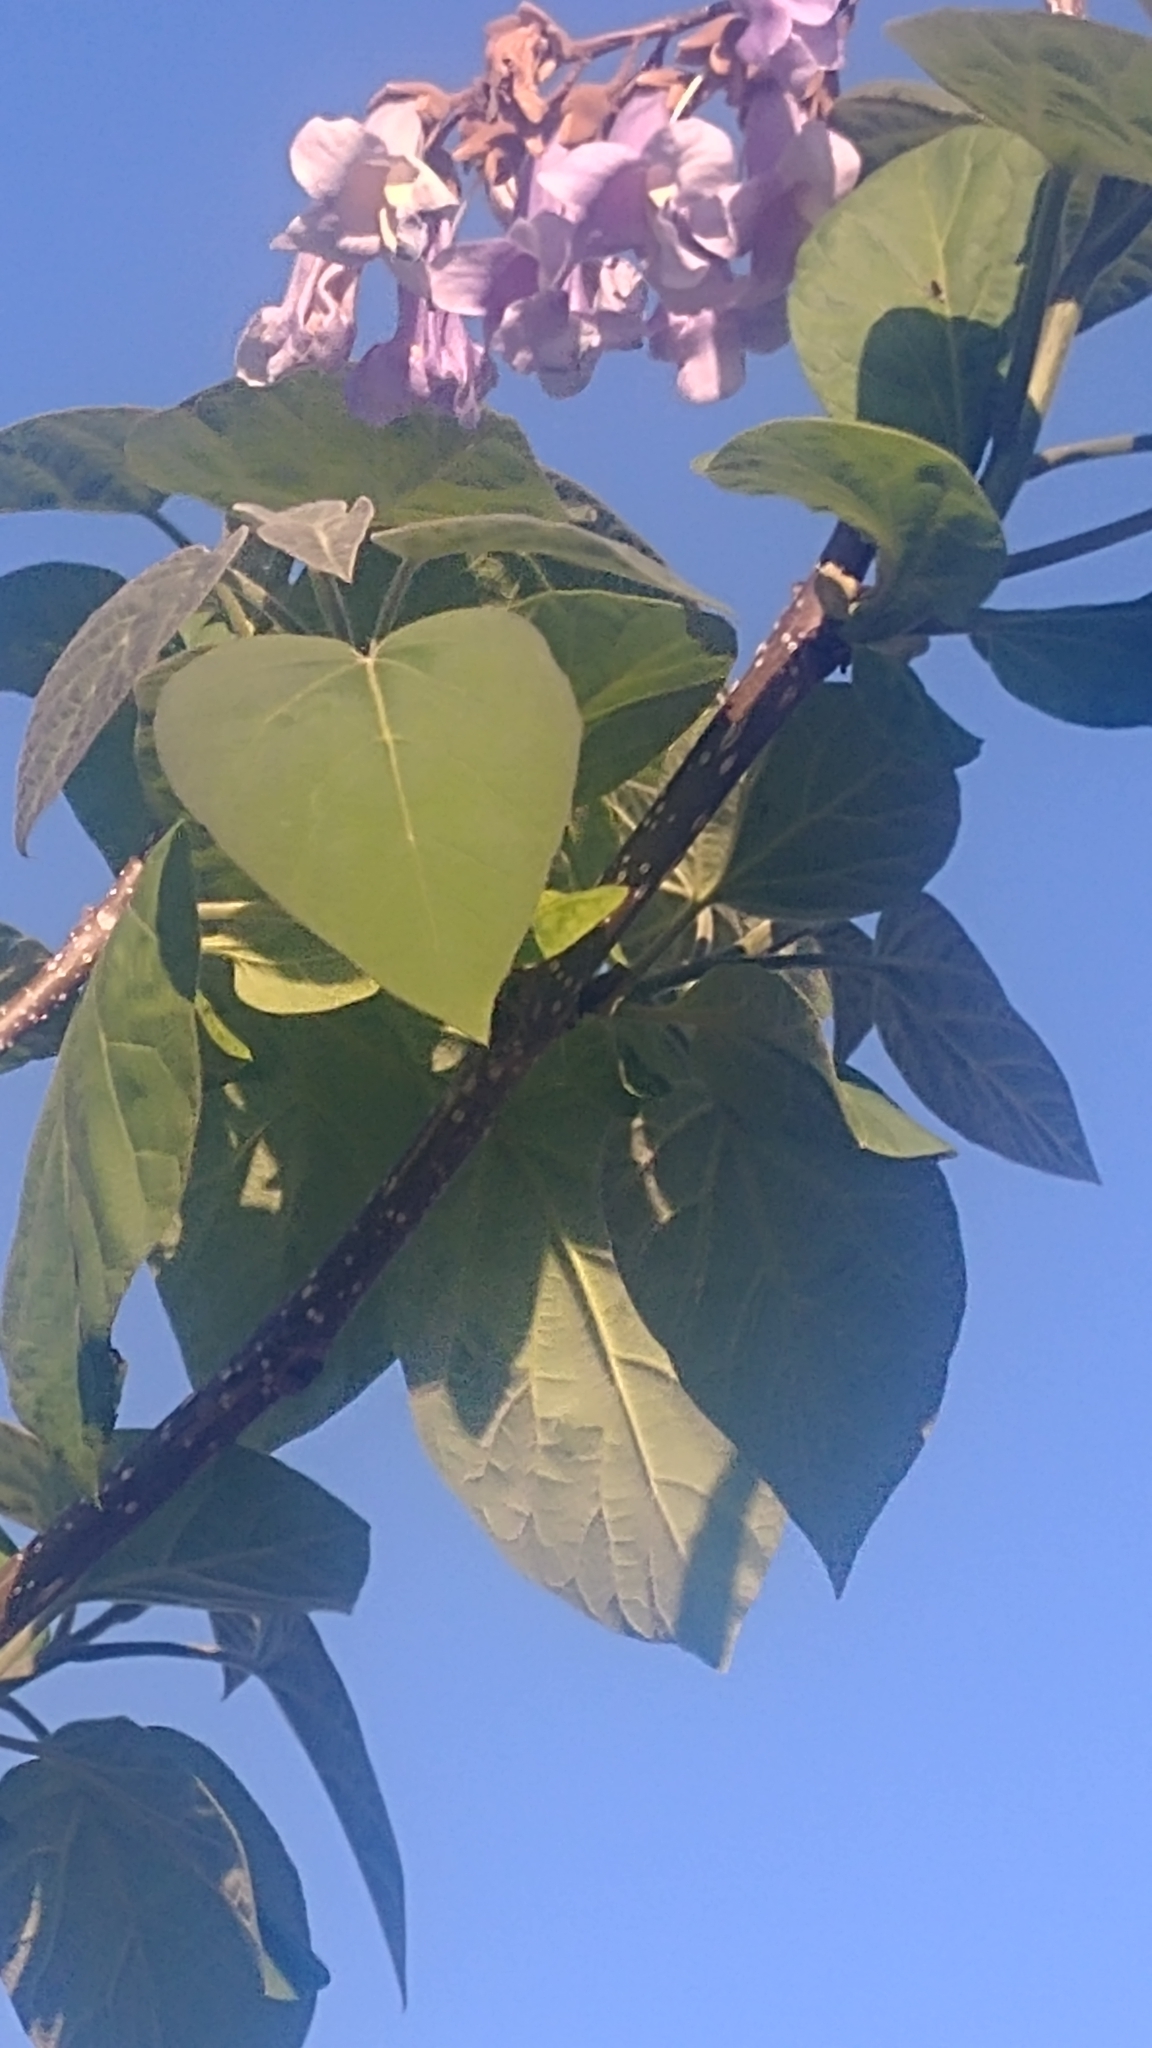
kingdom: Plantae
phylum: Tracheophyta
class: Magnoliopsida
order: Lamiales
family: Paulowniaceae
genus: Paulownia
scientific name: Paulownia tomentosa
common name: Foxglove-tree
